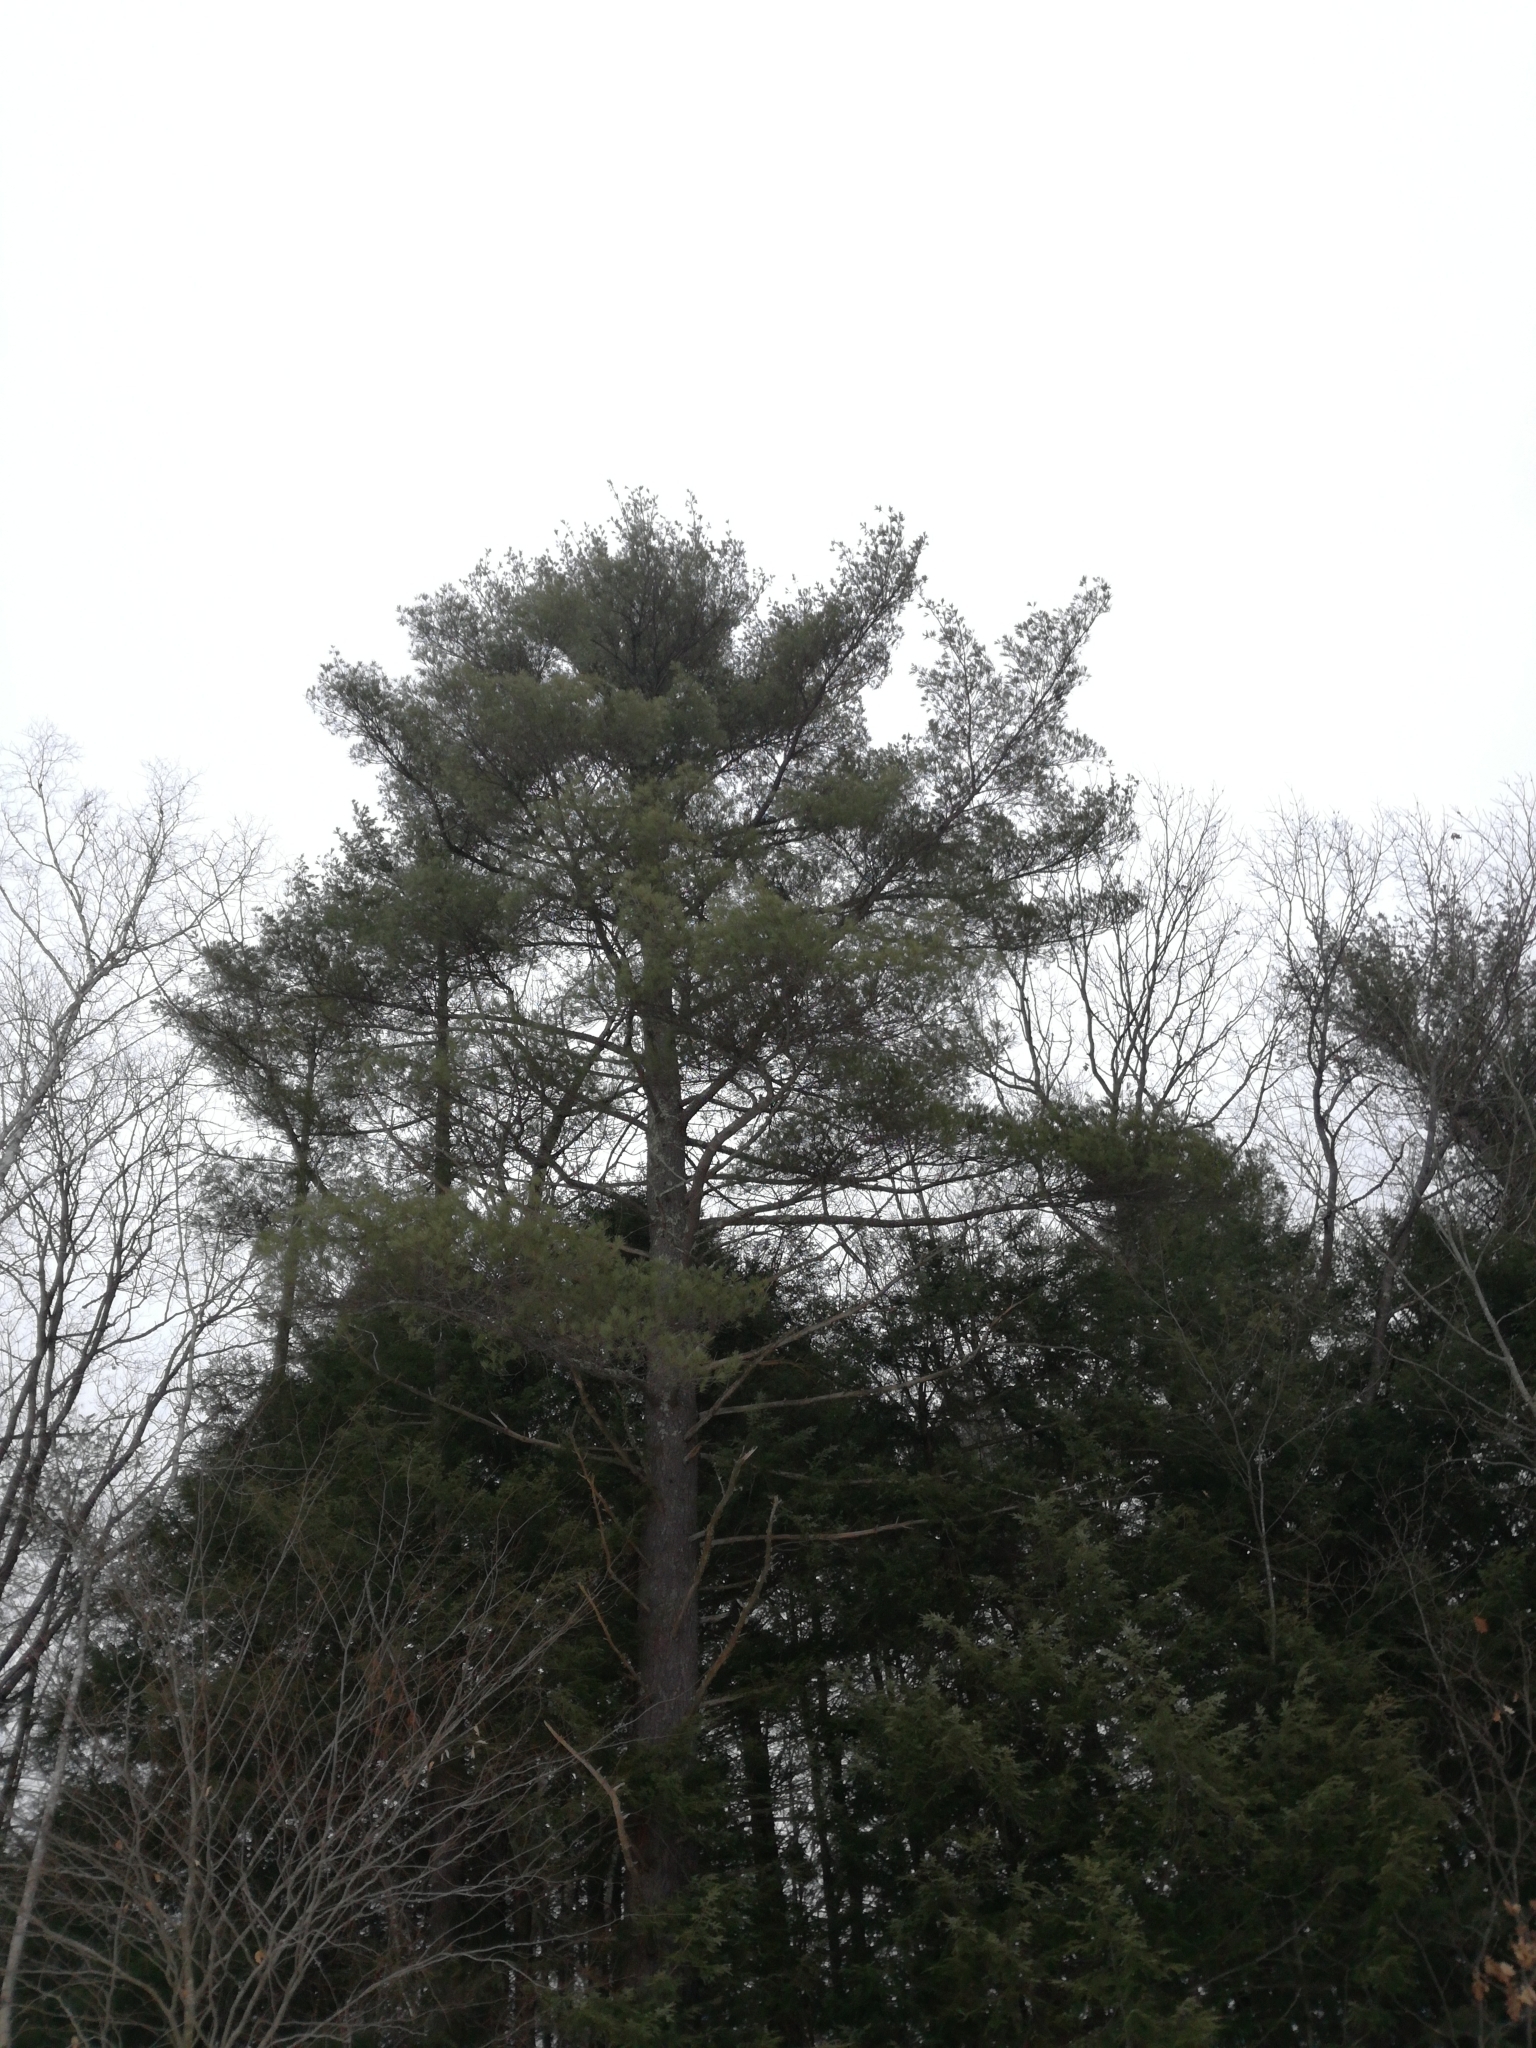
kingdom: Plantae
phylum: Tracheophyta
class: Pinopsida
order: Pinales
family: Pinaceae
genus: Pinus
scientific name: Pinus strobus
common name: Weymouth pine
